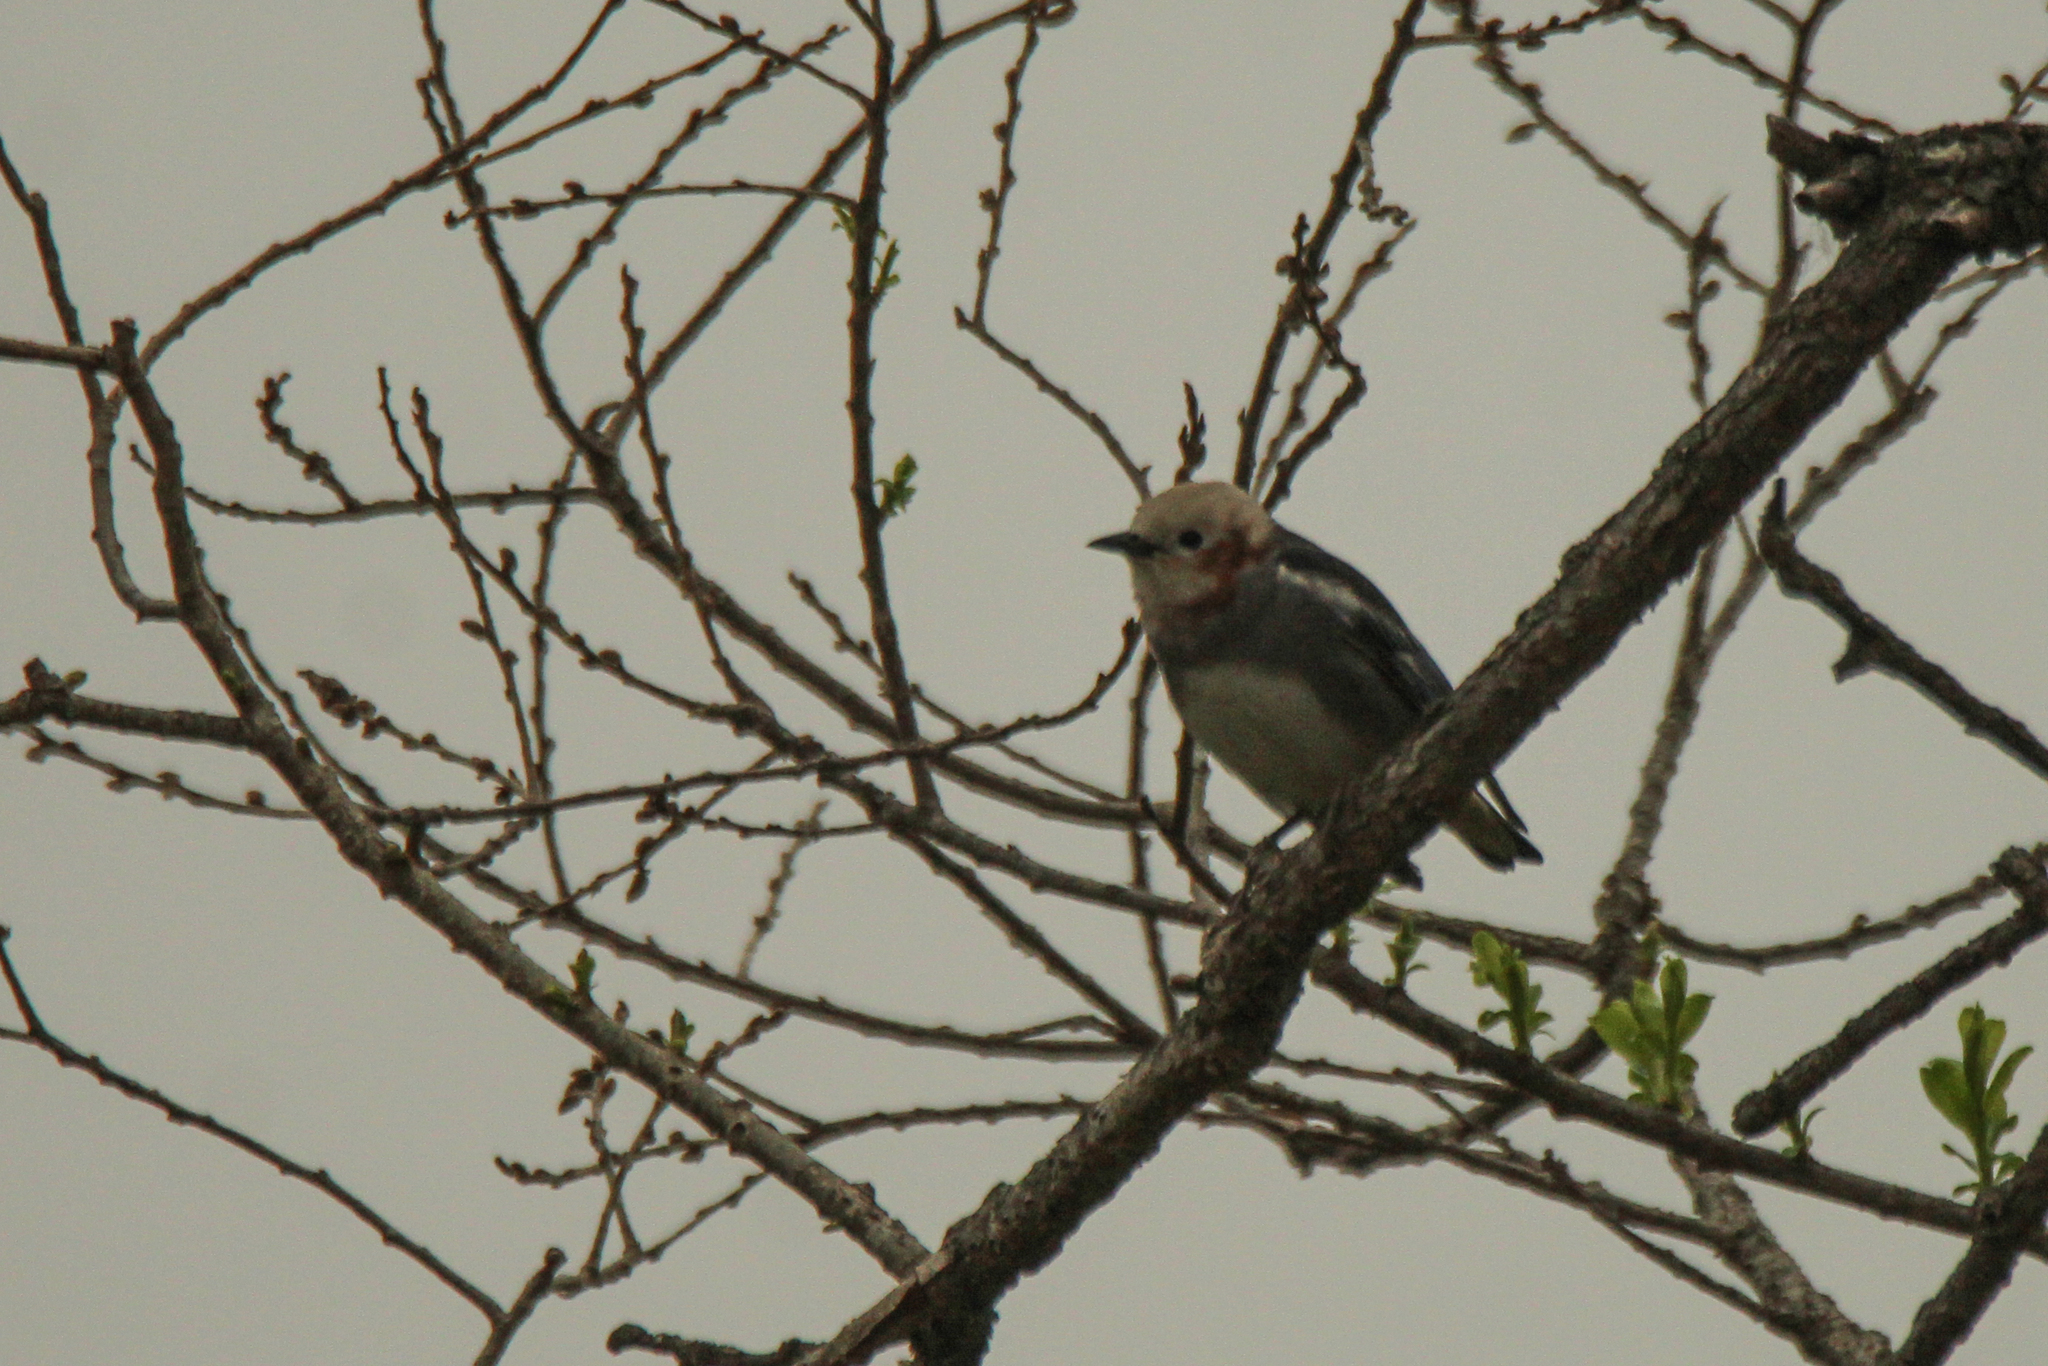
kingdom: Animalia
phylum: Chordata
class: Aves
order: Passeriformes
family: Sturnidae
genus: Agropsar
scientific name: Agropsar philippensis
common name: Chestnut-cheeked starling
